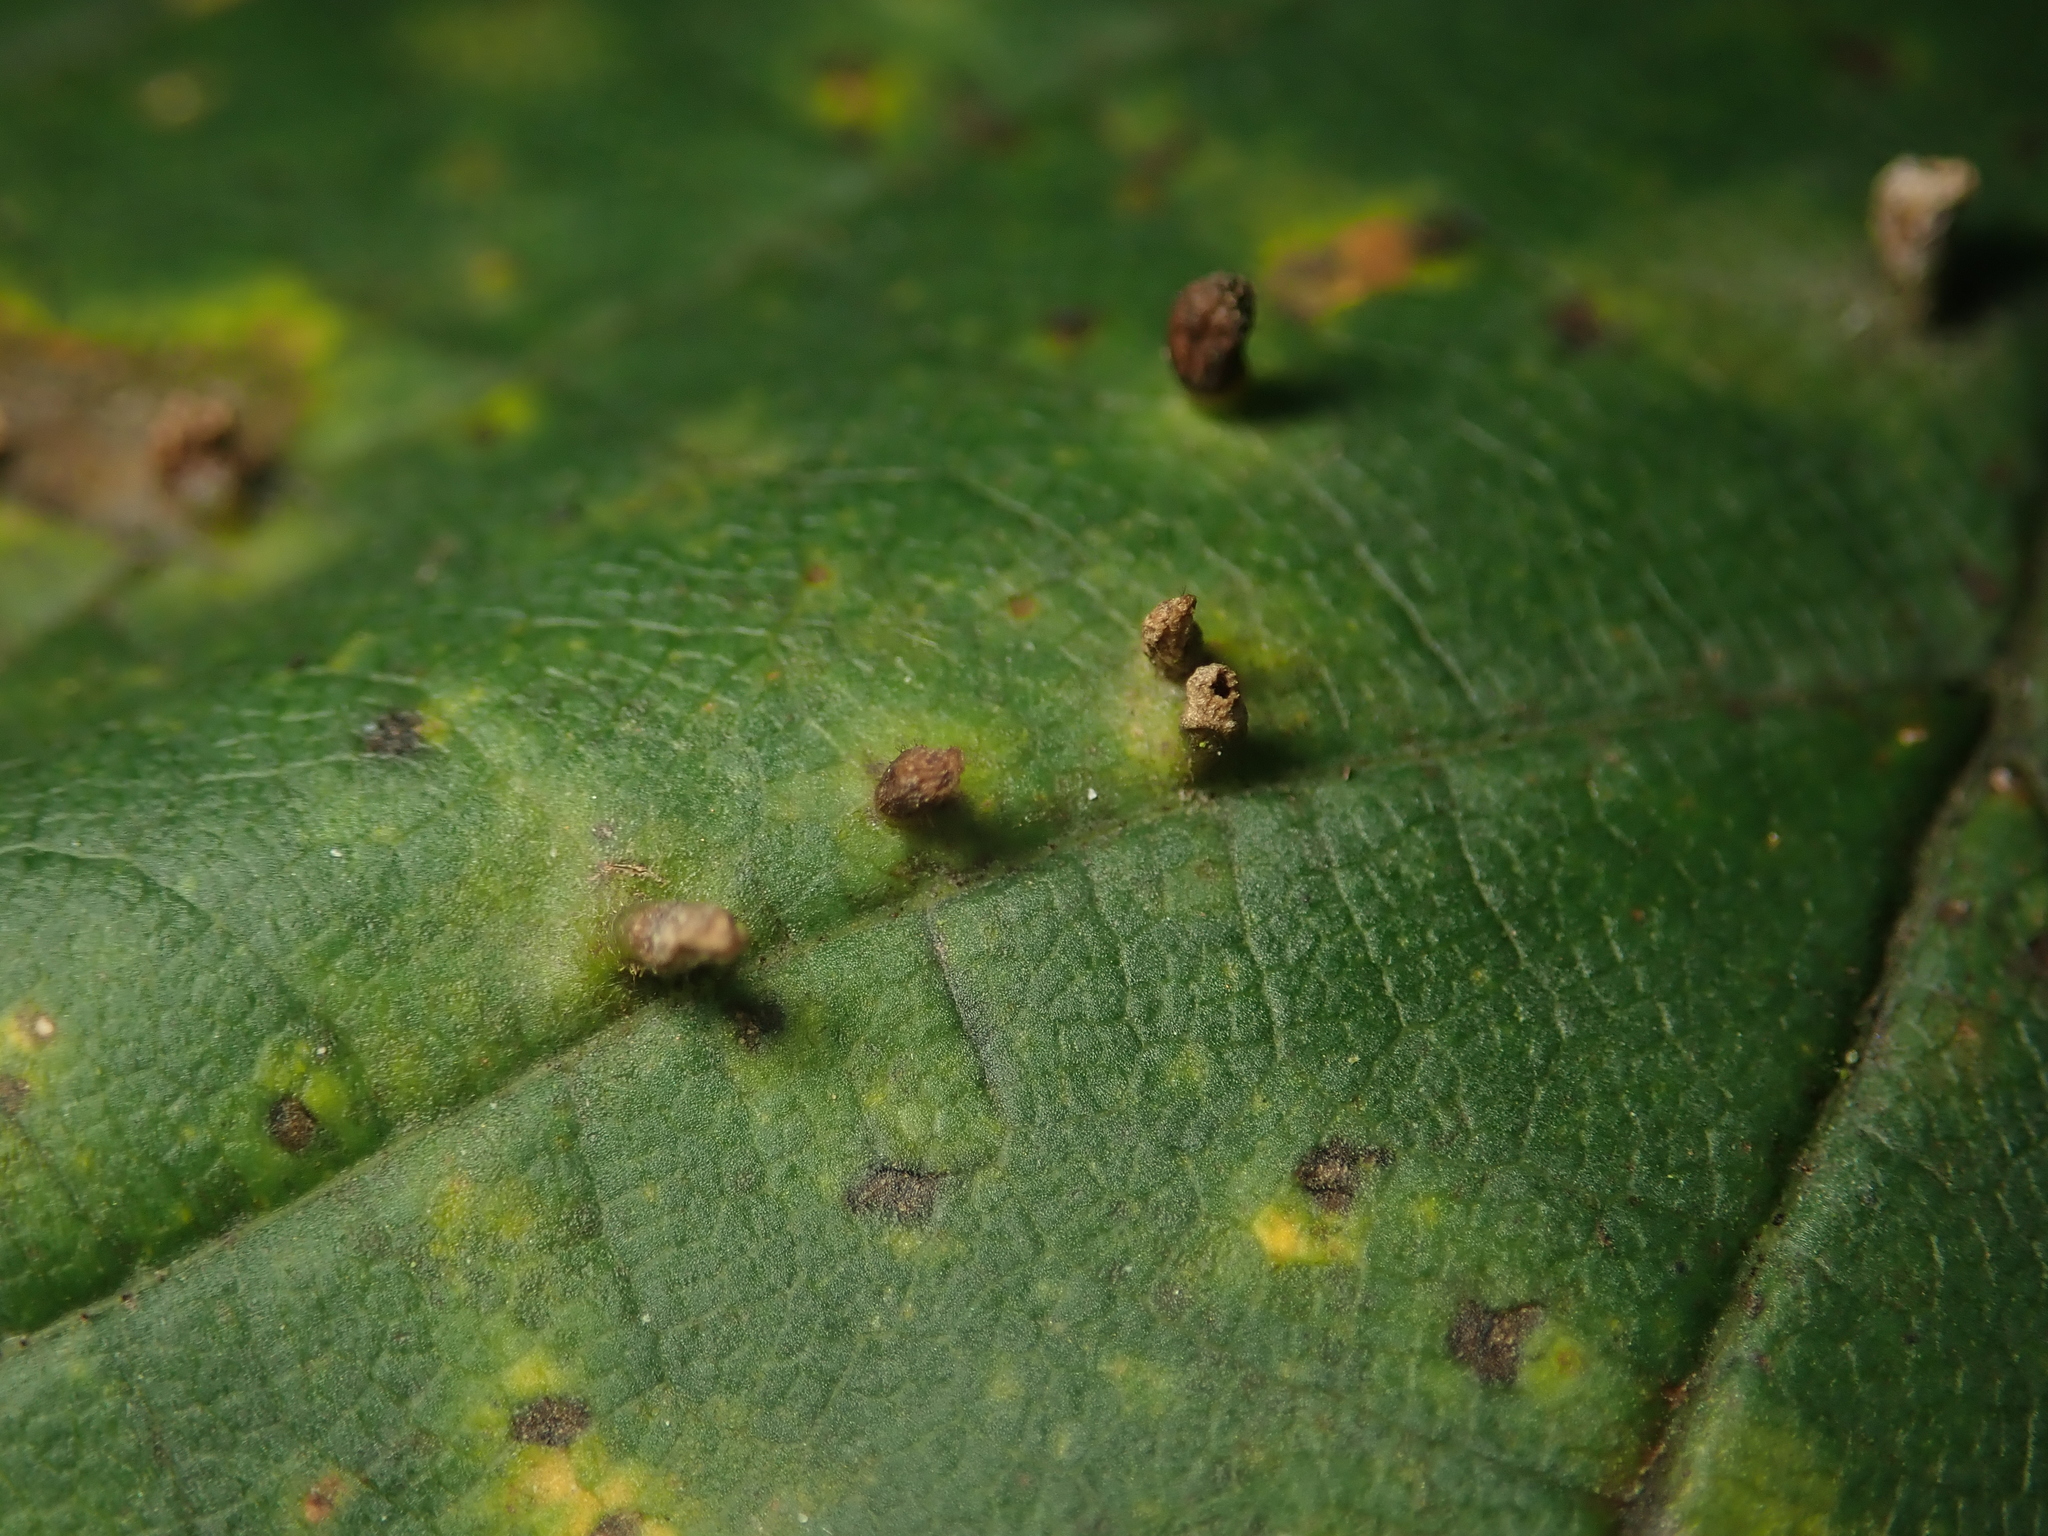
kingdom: Animalia
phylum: Arthropoda
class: Arachnida
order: Trombidiformes
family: Eriophyidae
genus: Aceria
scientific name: Aceria cephaloneus
